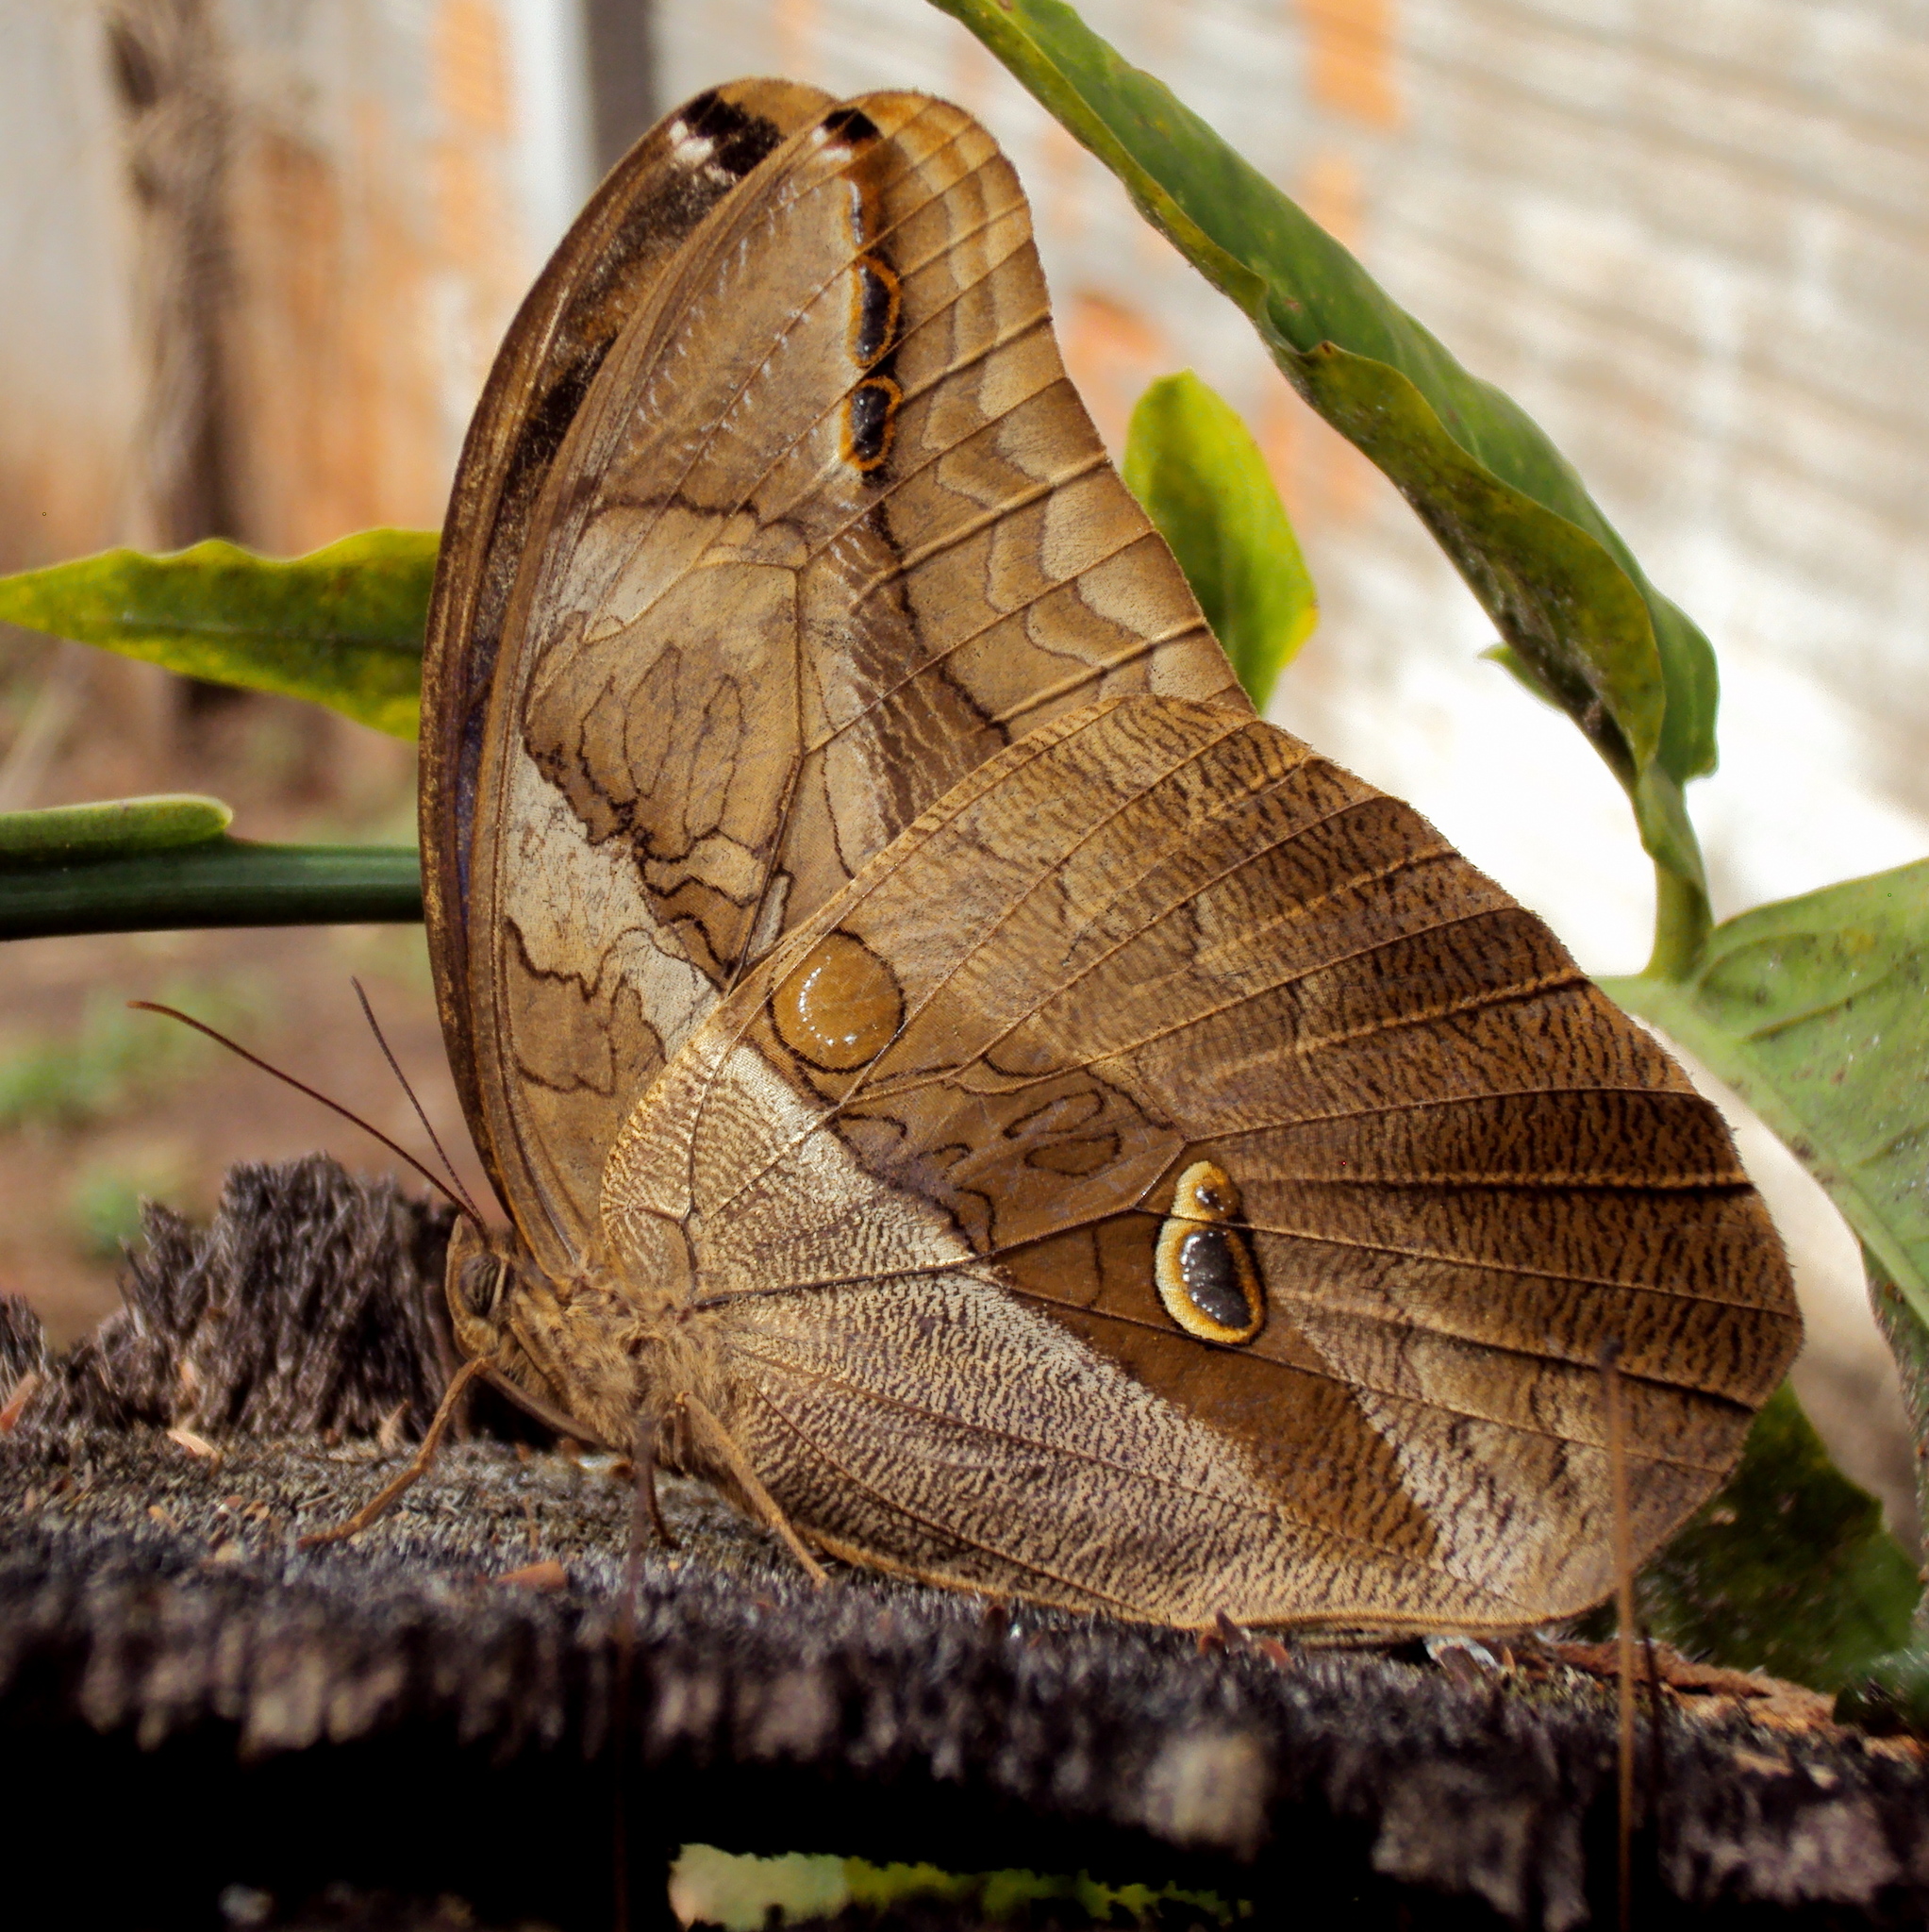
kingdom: Animalia
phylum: Arthropoda
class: Insecta
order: Lepidoptera
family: Nymphalidae
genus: Eryphanis
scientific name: Eryphanis polyxena
